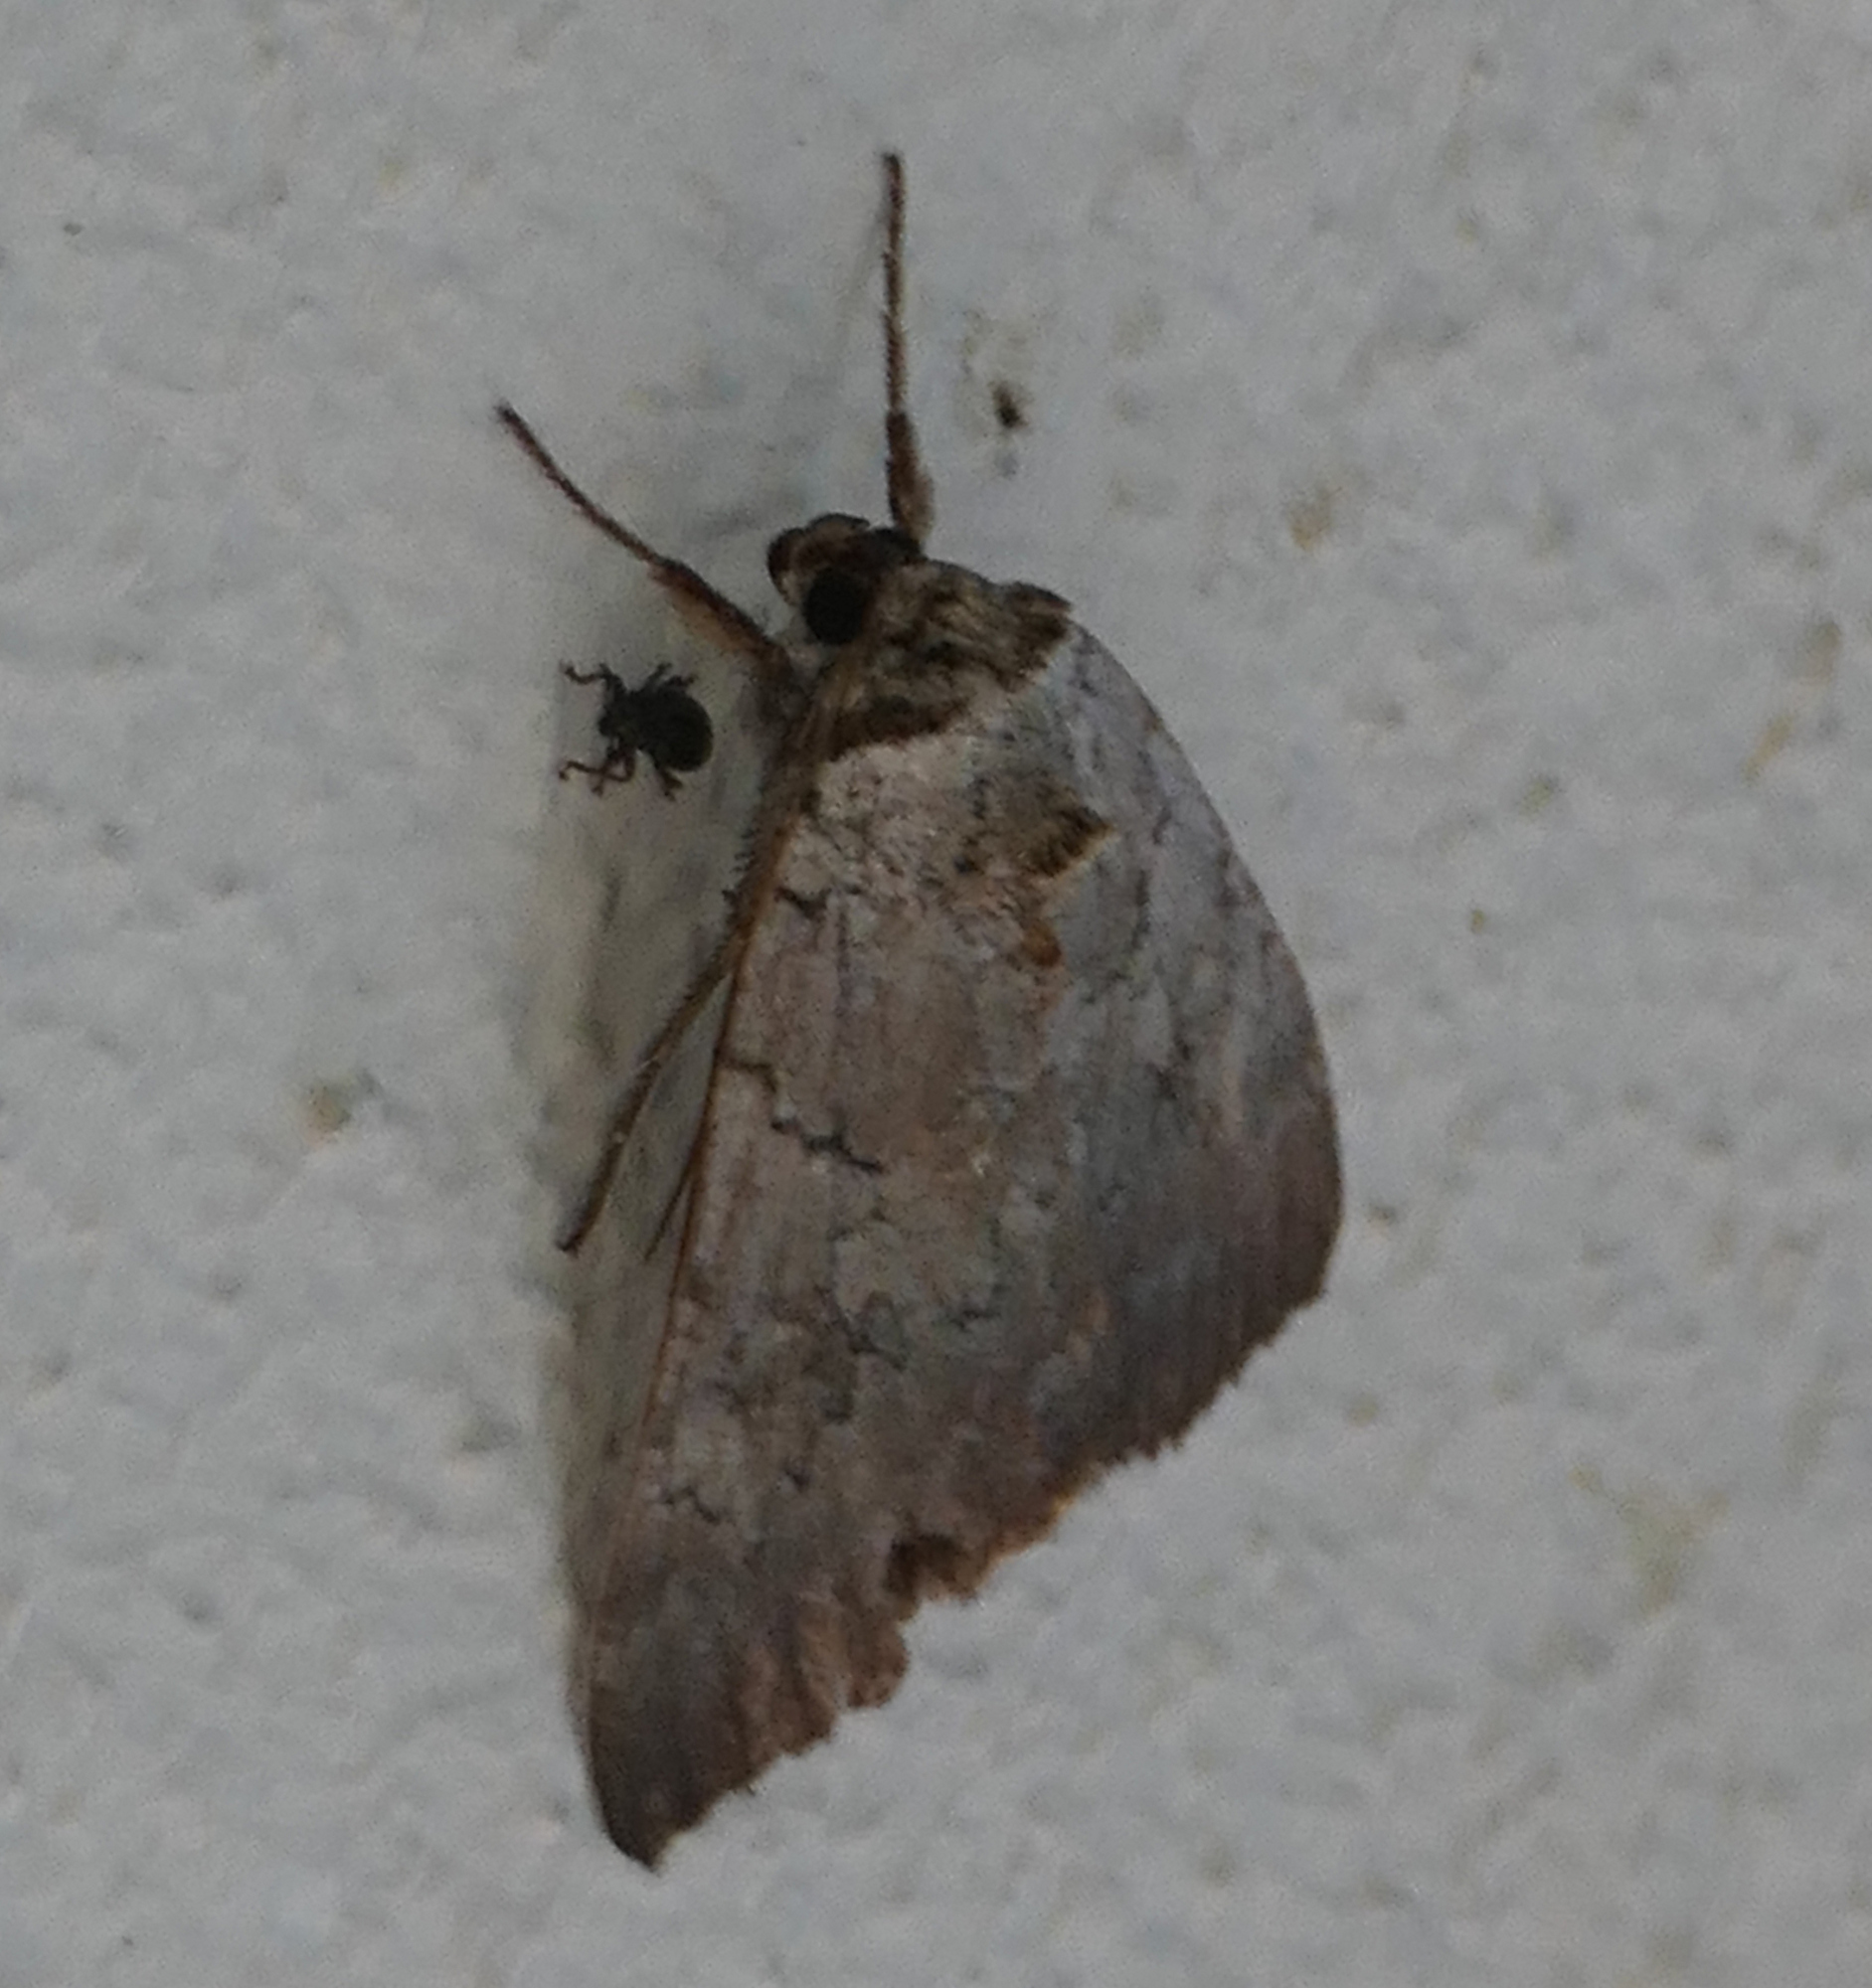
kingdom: Animalia
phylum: Arthropoda
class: Insecta
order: Lepidoptera
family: Erebidae
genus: Catocala
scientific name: Catocala illecta
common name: Magdalen underwing
